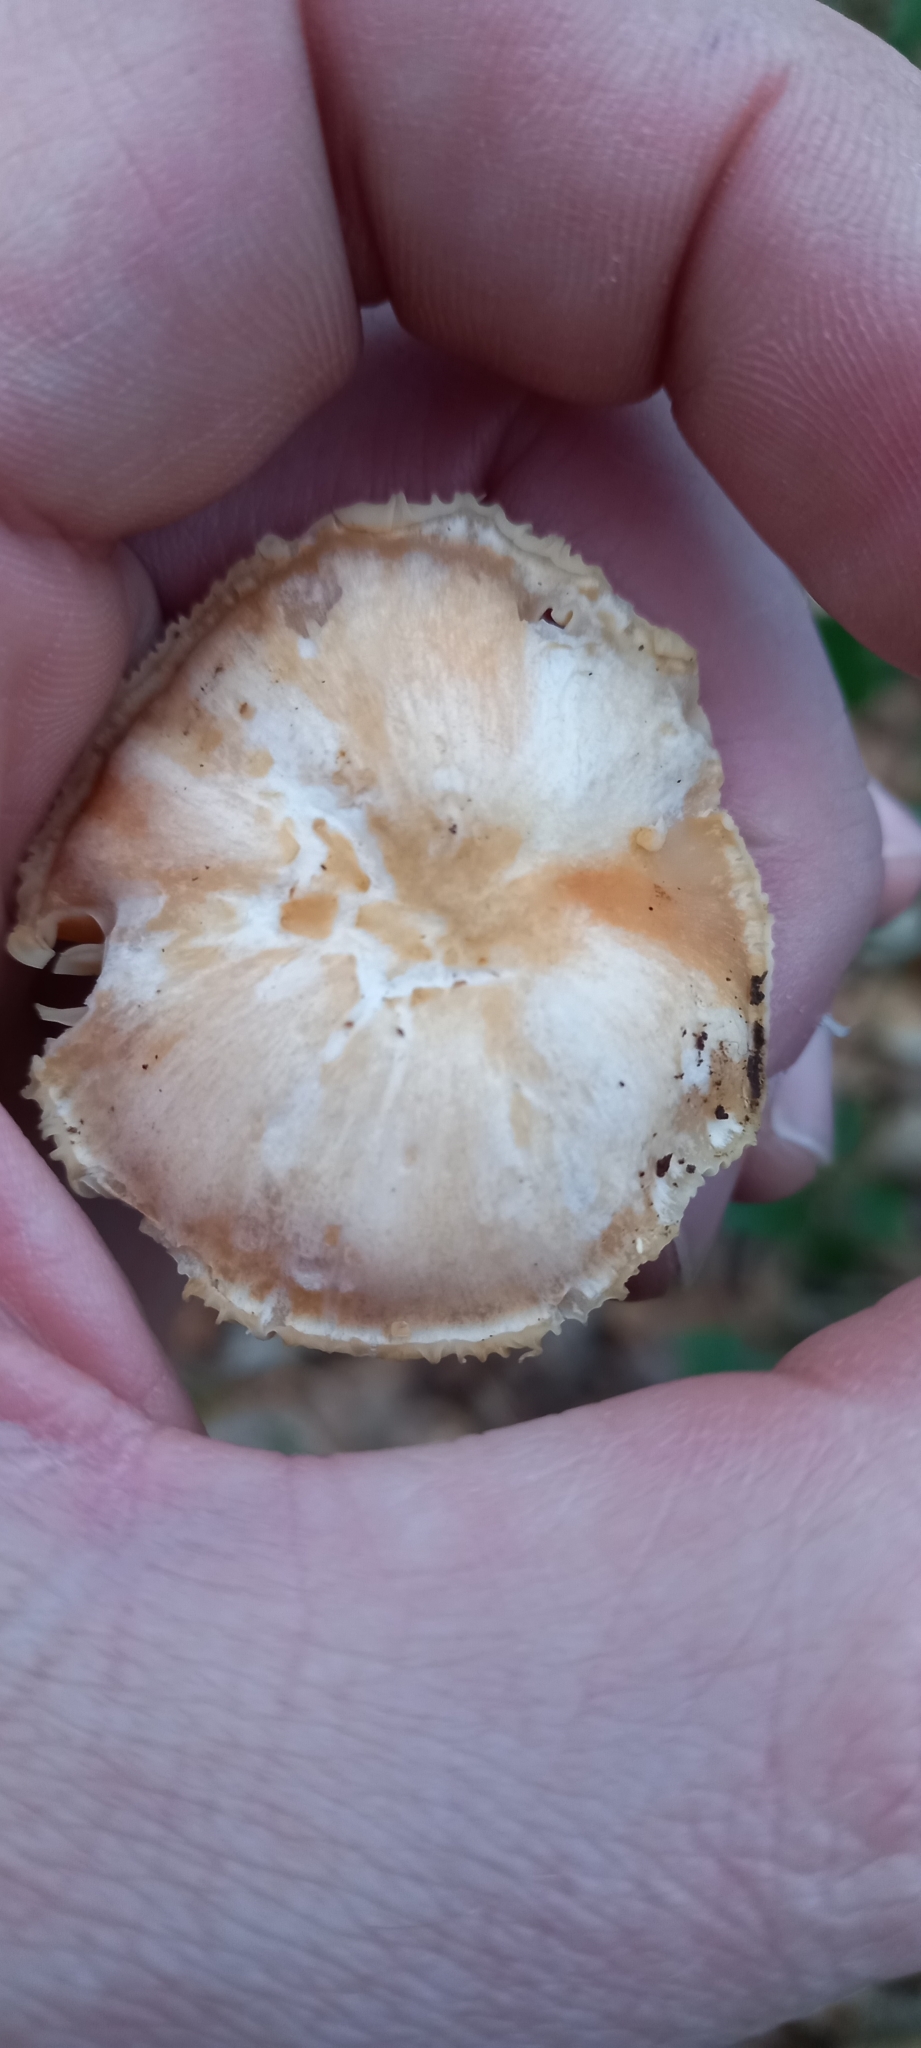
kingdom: Fungi
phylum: Basidiomycota
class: Agaricomycetes
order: Agaricales
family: Hygrophoraceae
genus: Cuphophyllus
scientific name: Cuphophyllus pratensis
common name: Meadow waxcap
